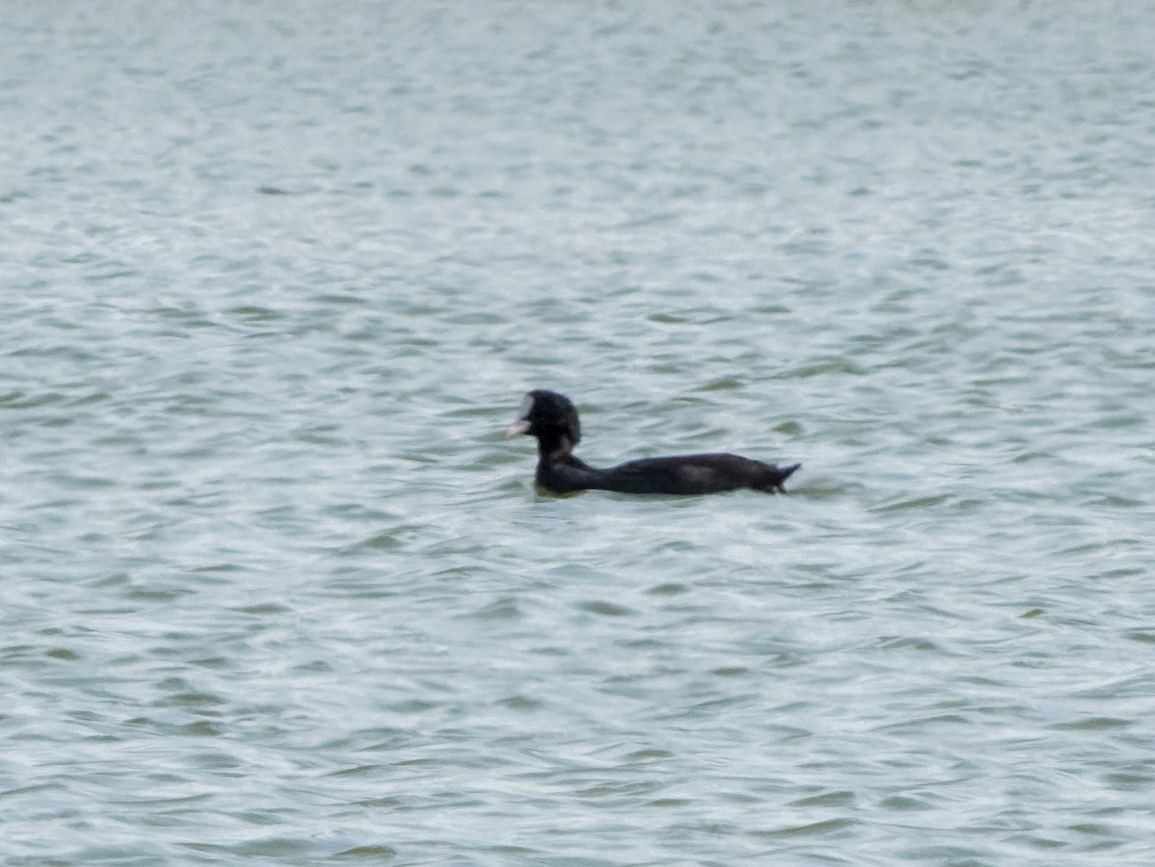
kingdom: Animalia
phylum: Chordata
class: Aves
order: Gruiformes
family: Rallidae
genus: Fulica
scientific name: Fulica atra
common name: Eurasian coot
